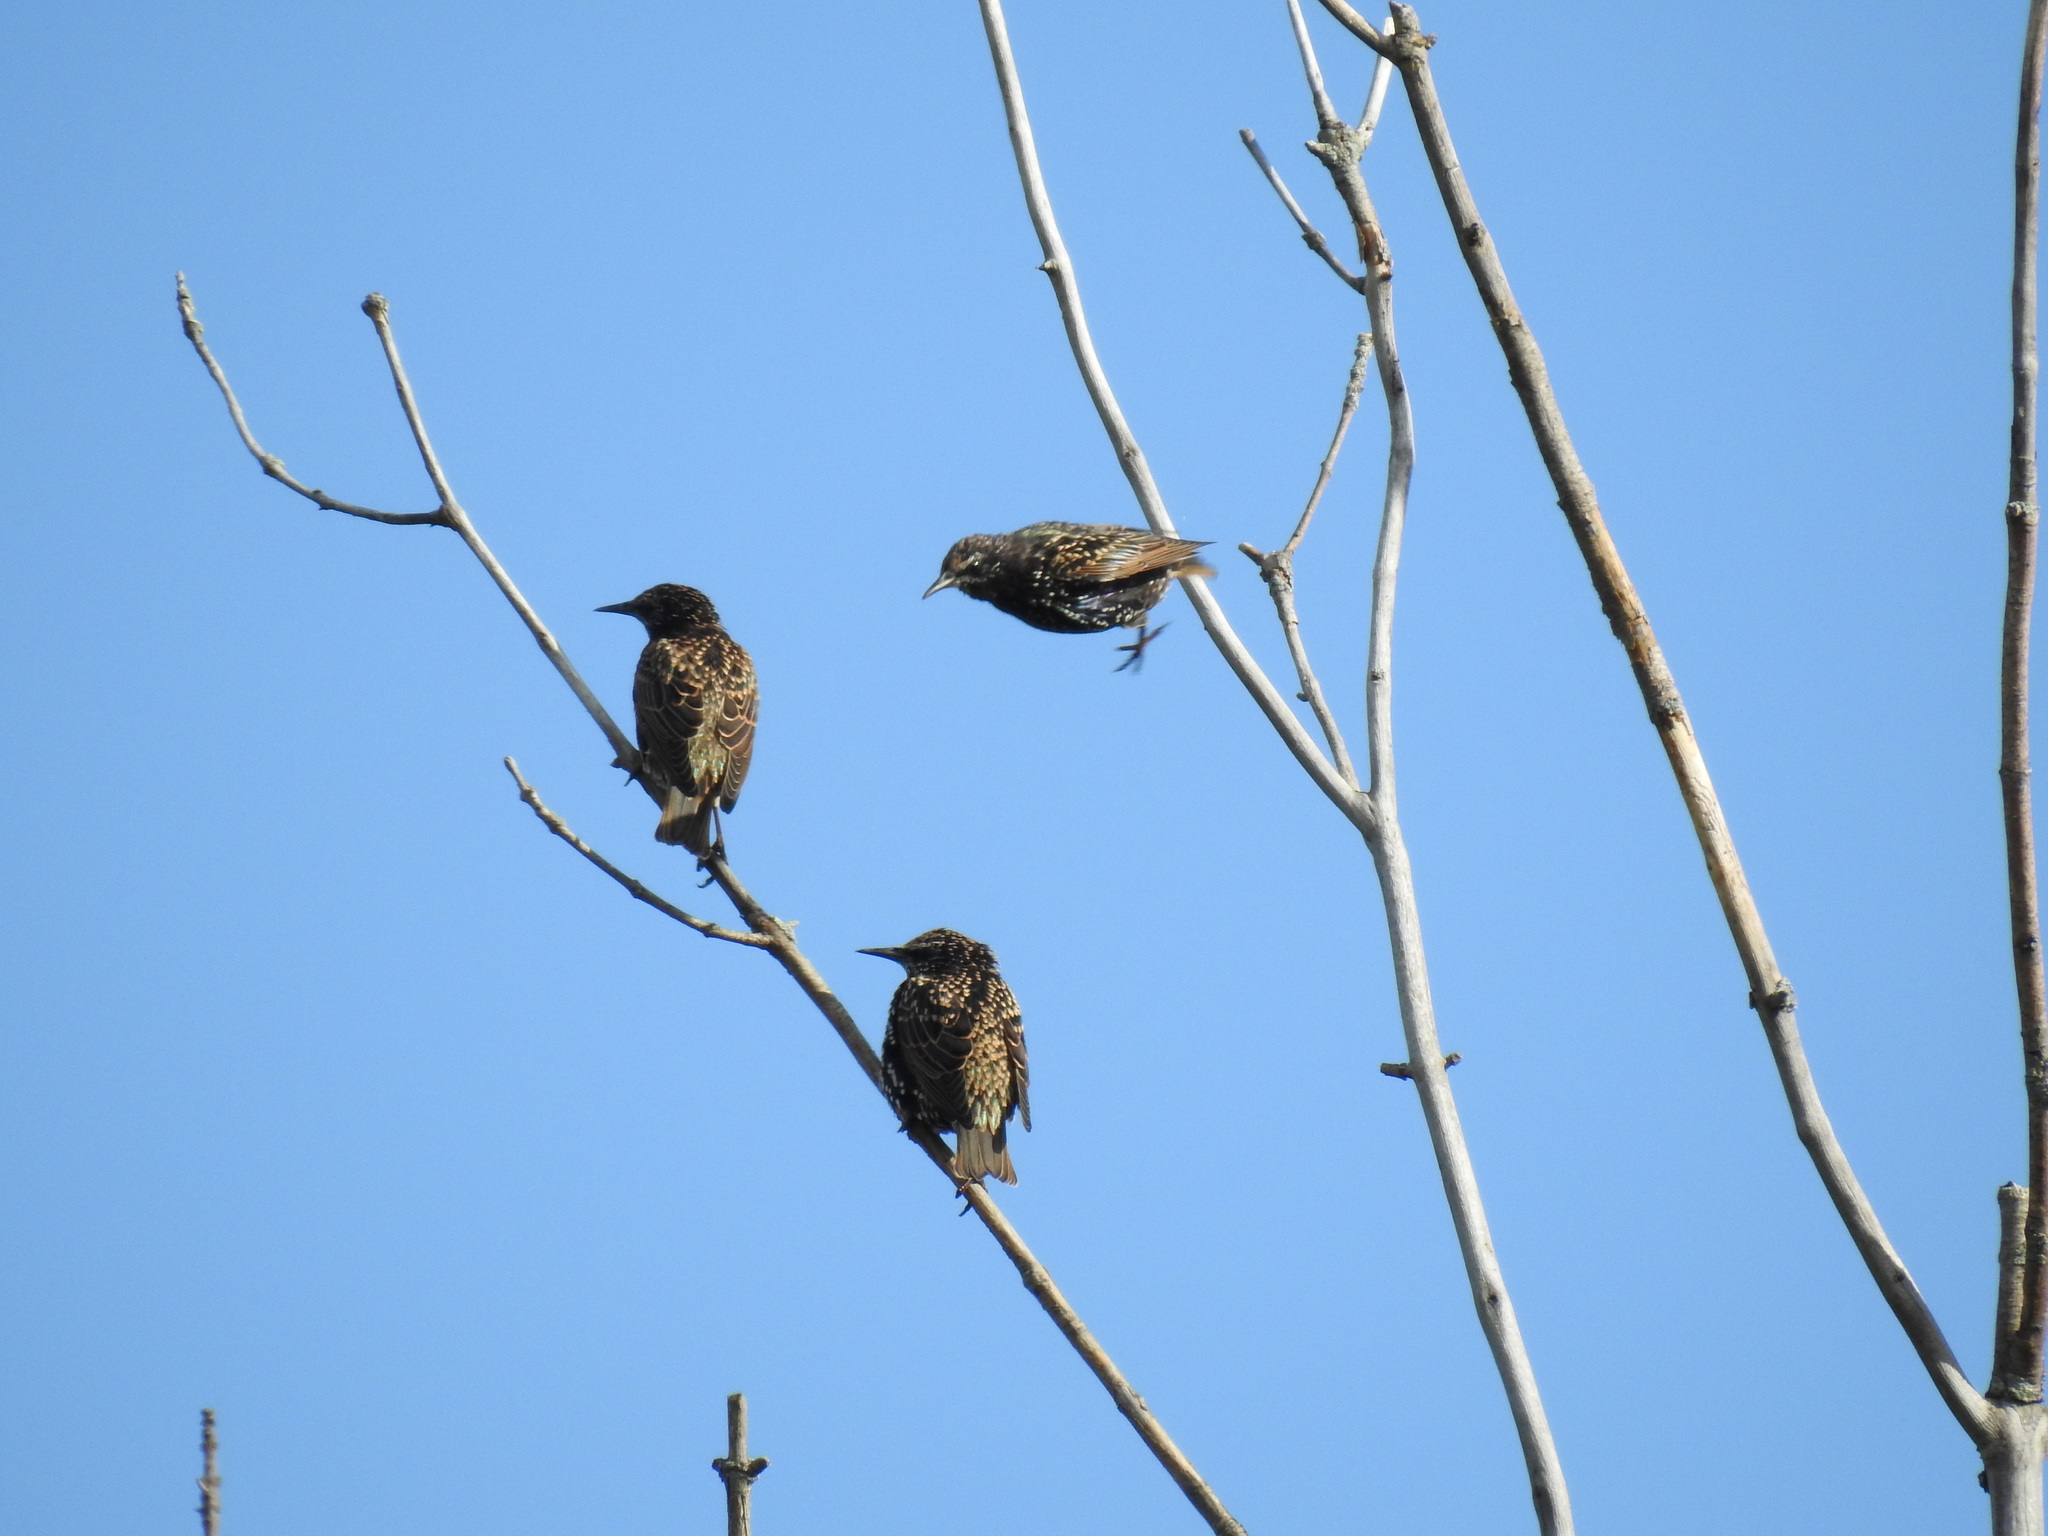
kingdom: Animalia
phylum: Chordata
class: Aves
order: Passeriformes
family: Sturnidae
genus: Sturnus
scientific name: Sturnus vulgaris
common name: Common starling
